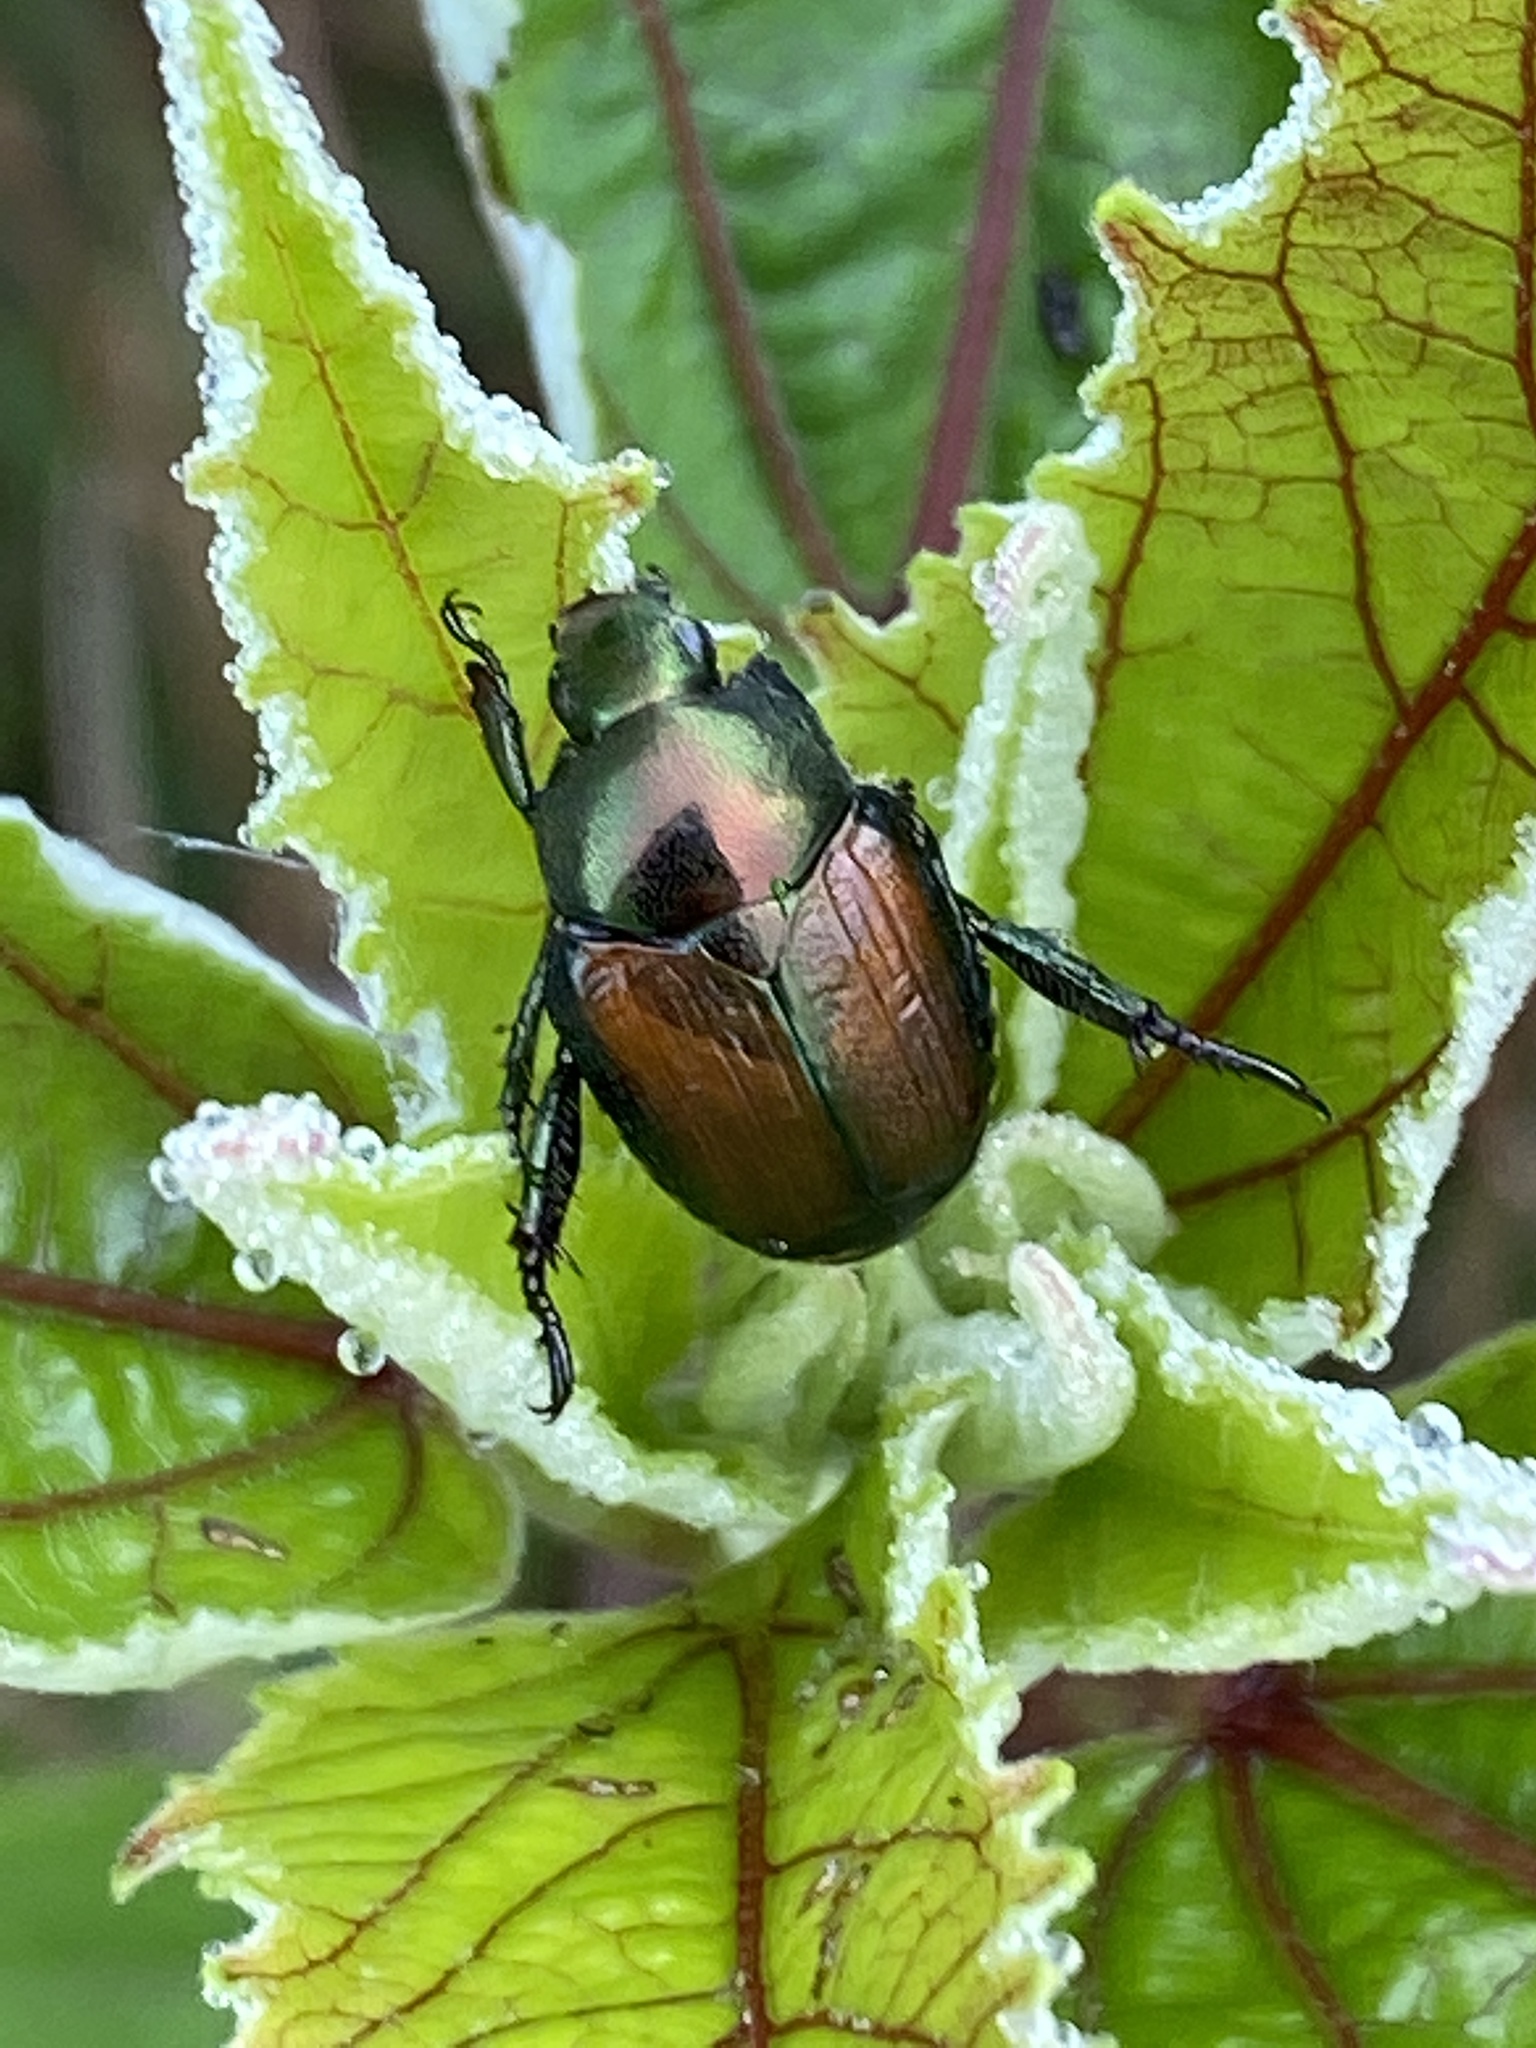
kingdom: Animalia
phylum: Arthropoda
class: Insecta
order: Coleoptera
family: Scarabaeidae
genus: Popillia
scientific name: Popillia japonica
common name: Japanese beetle
